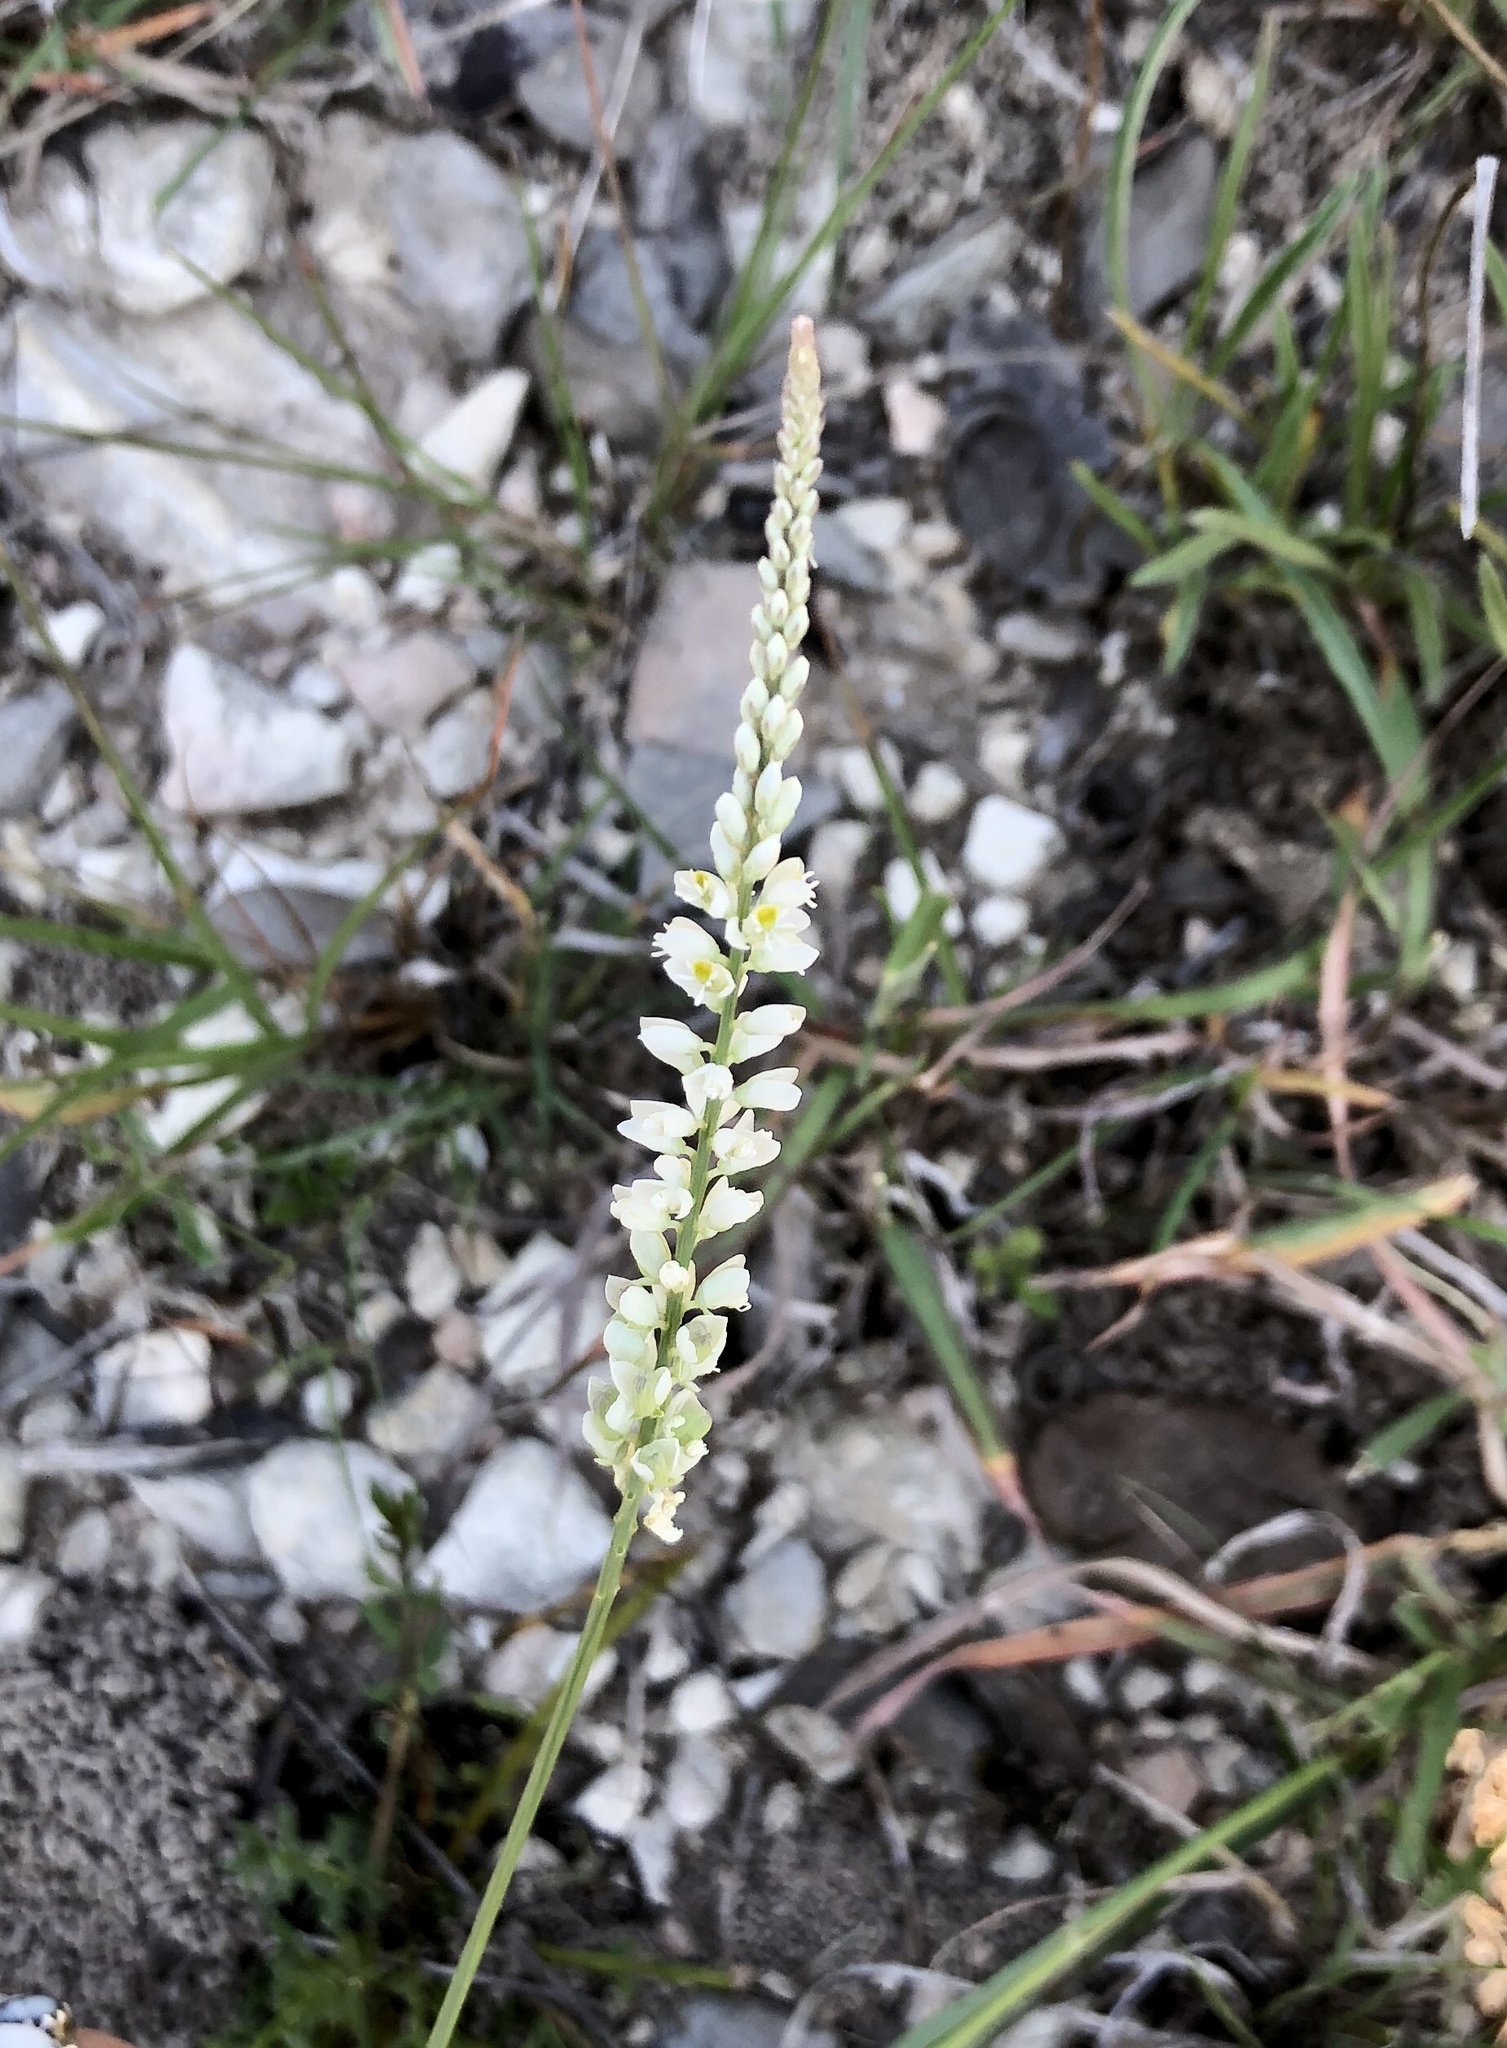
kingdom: Plantae
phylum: Tracheophyta
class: Magnoliopsida
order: Fabales
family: Polygalaceae
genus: Polygala
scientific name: Polygala alba
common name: White milkwort
